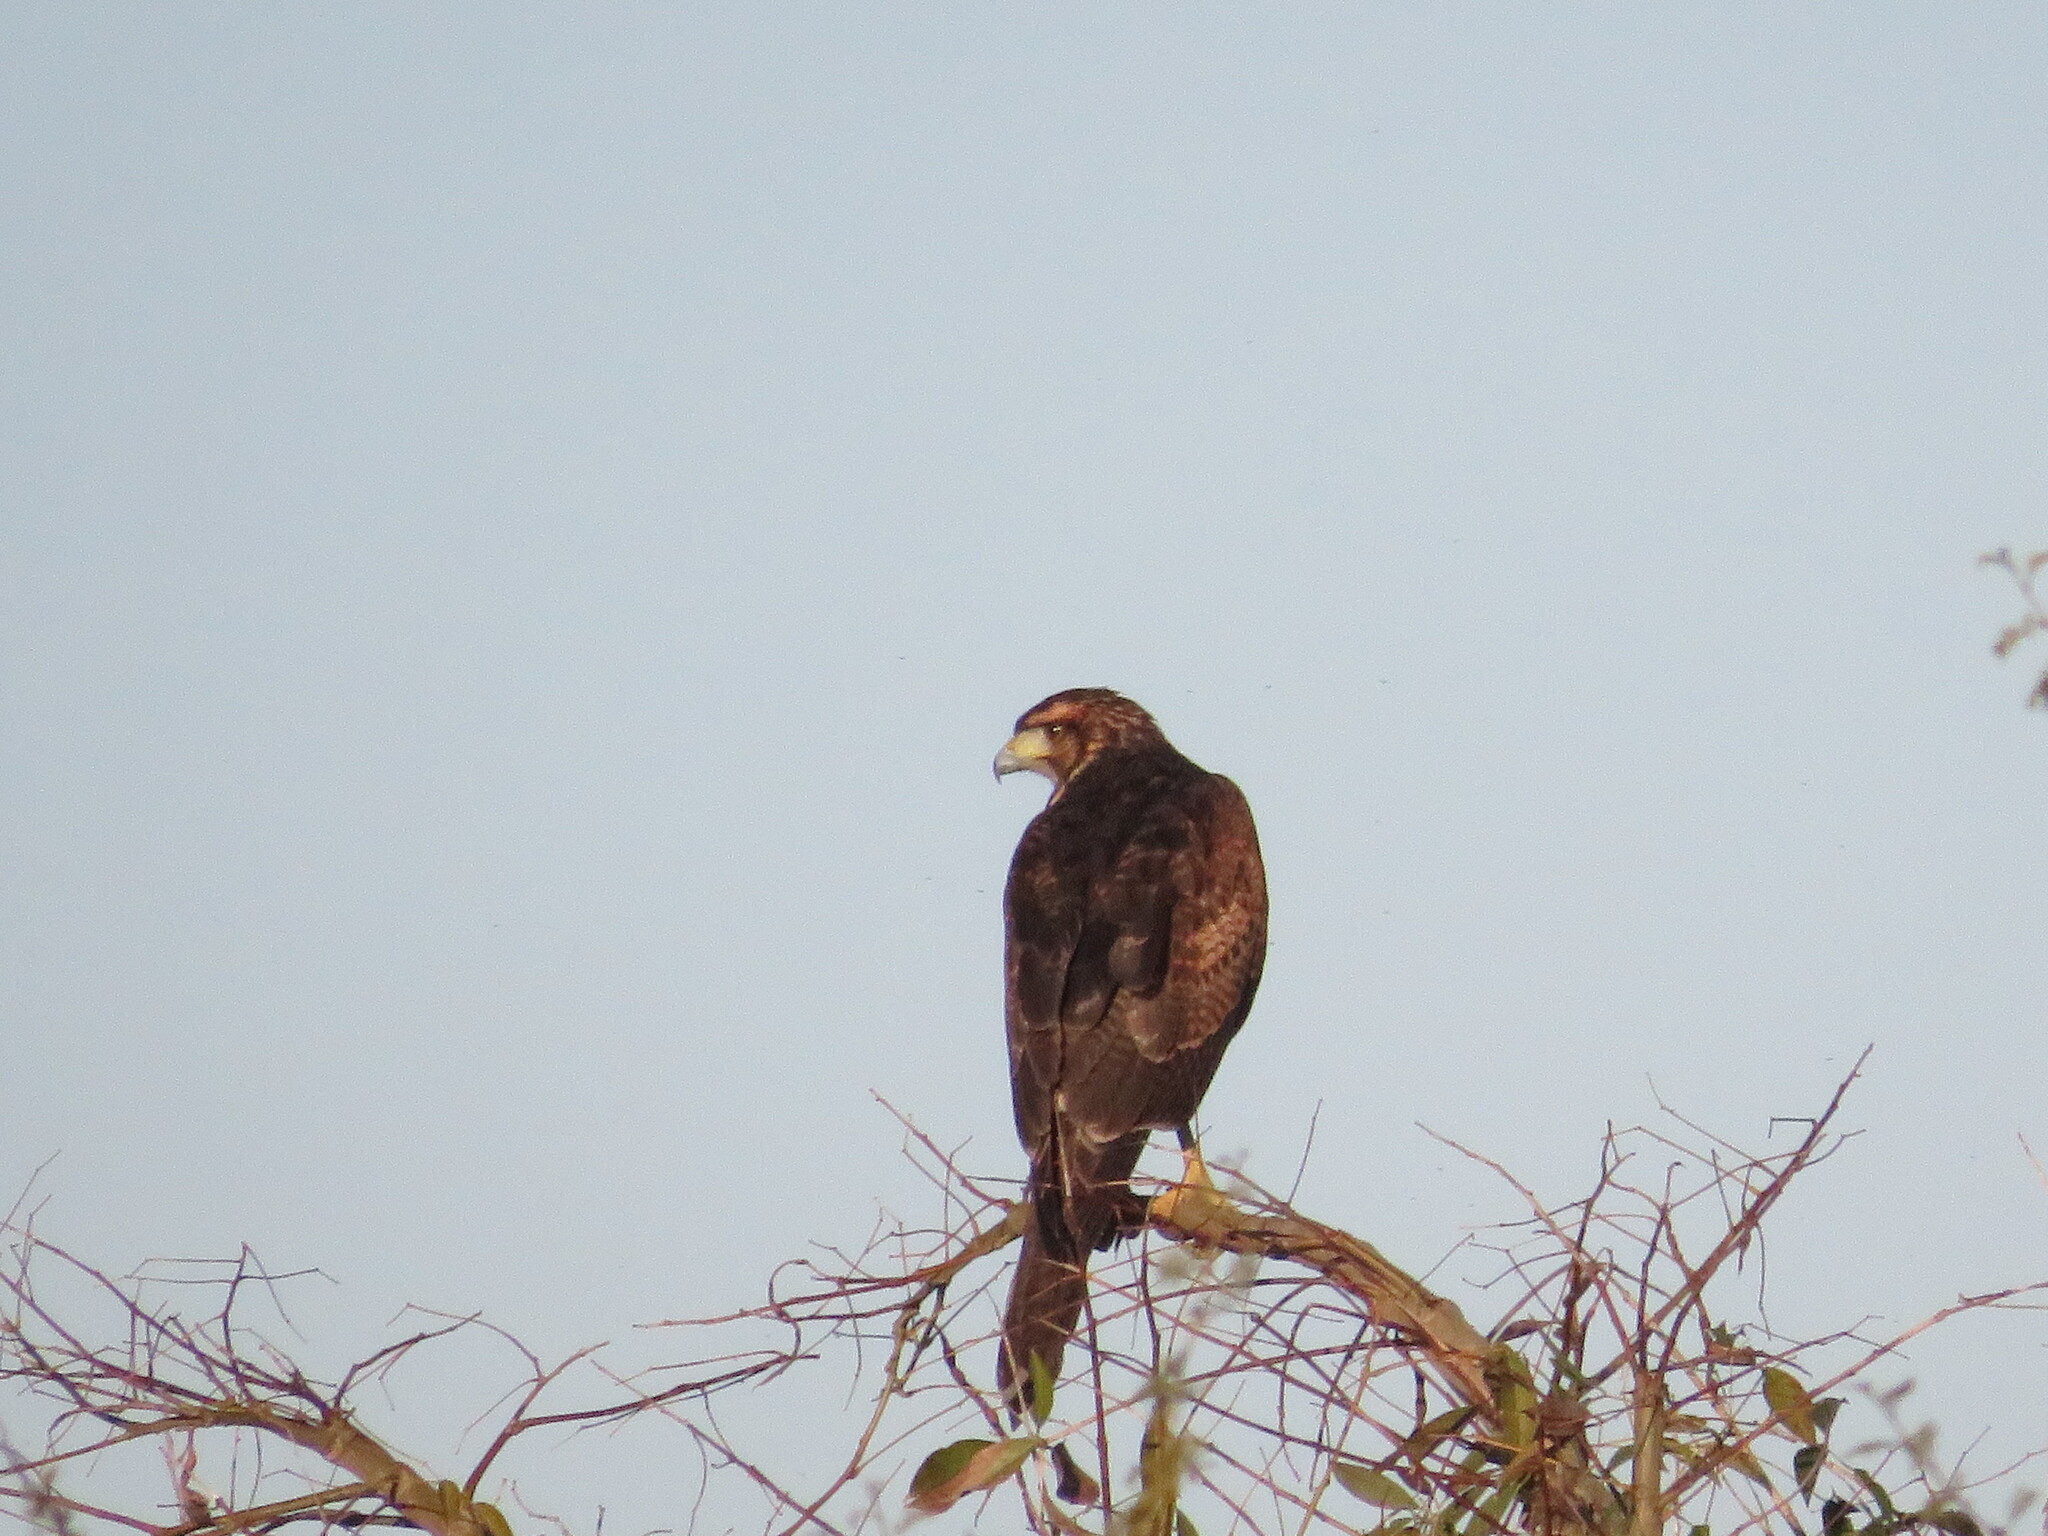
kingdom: Animalia
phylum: Chordata
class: Aves
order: Accipitriformes
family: Accipitridae
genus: Parabuteo
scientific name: Parabuteo unicinctus
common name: Harris's hawk
